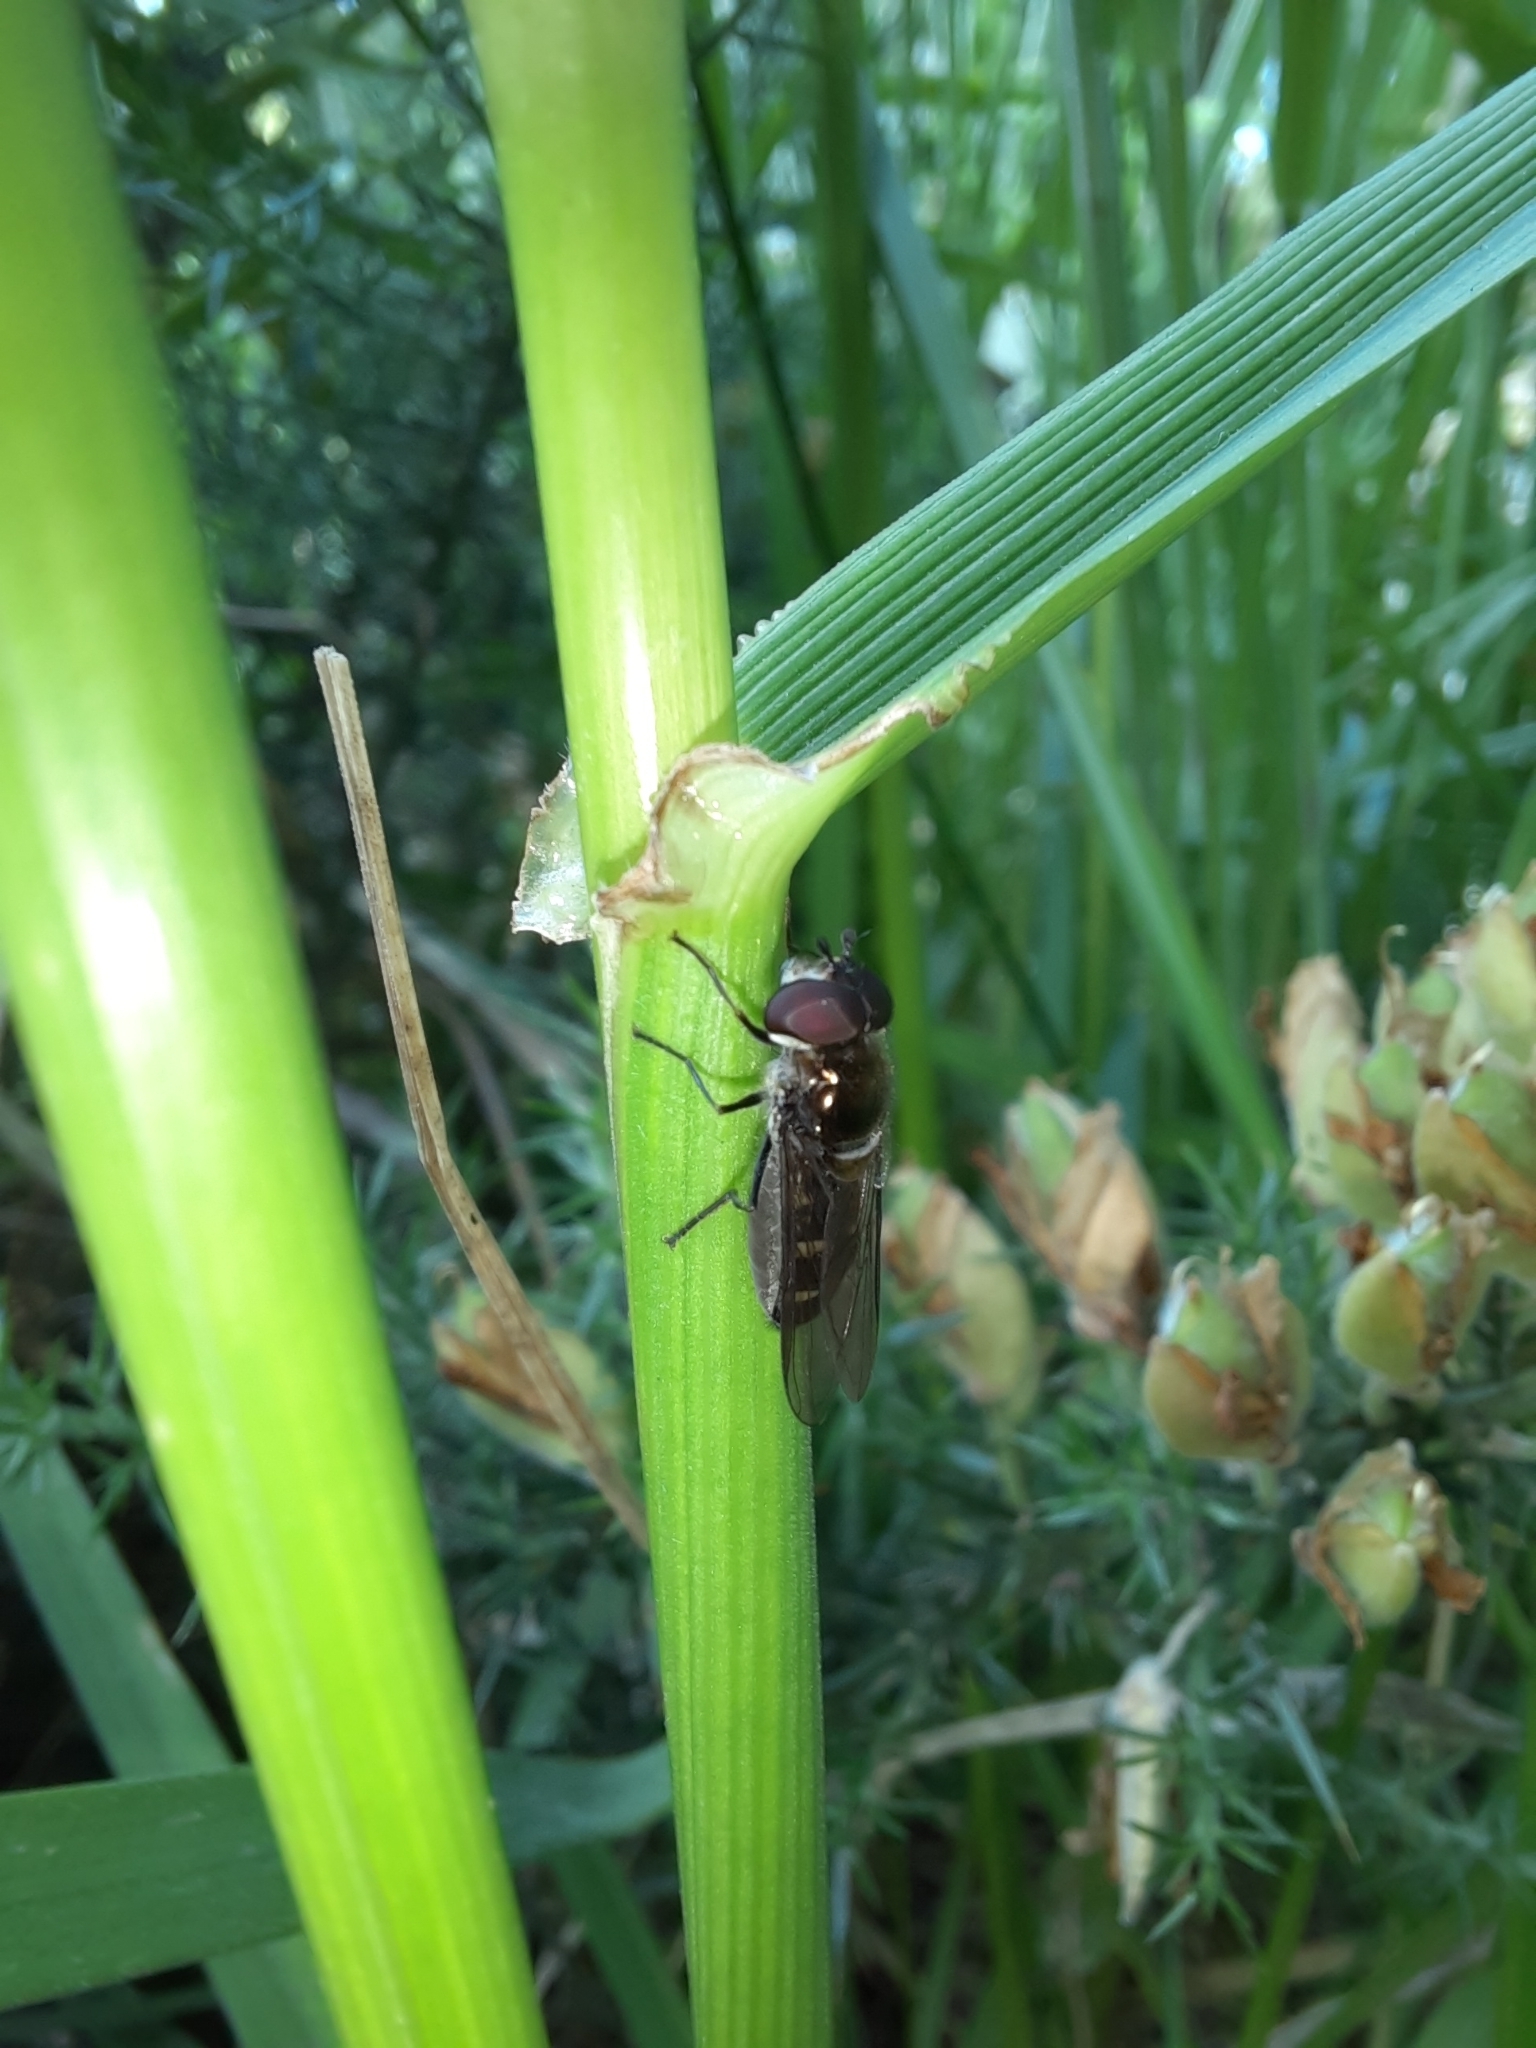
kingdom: Animalia
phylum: Arthropoda
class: Insecta
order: Diptera
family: Syrphidae
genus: Melangyna
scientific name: Melangyna novaezelandiae
